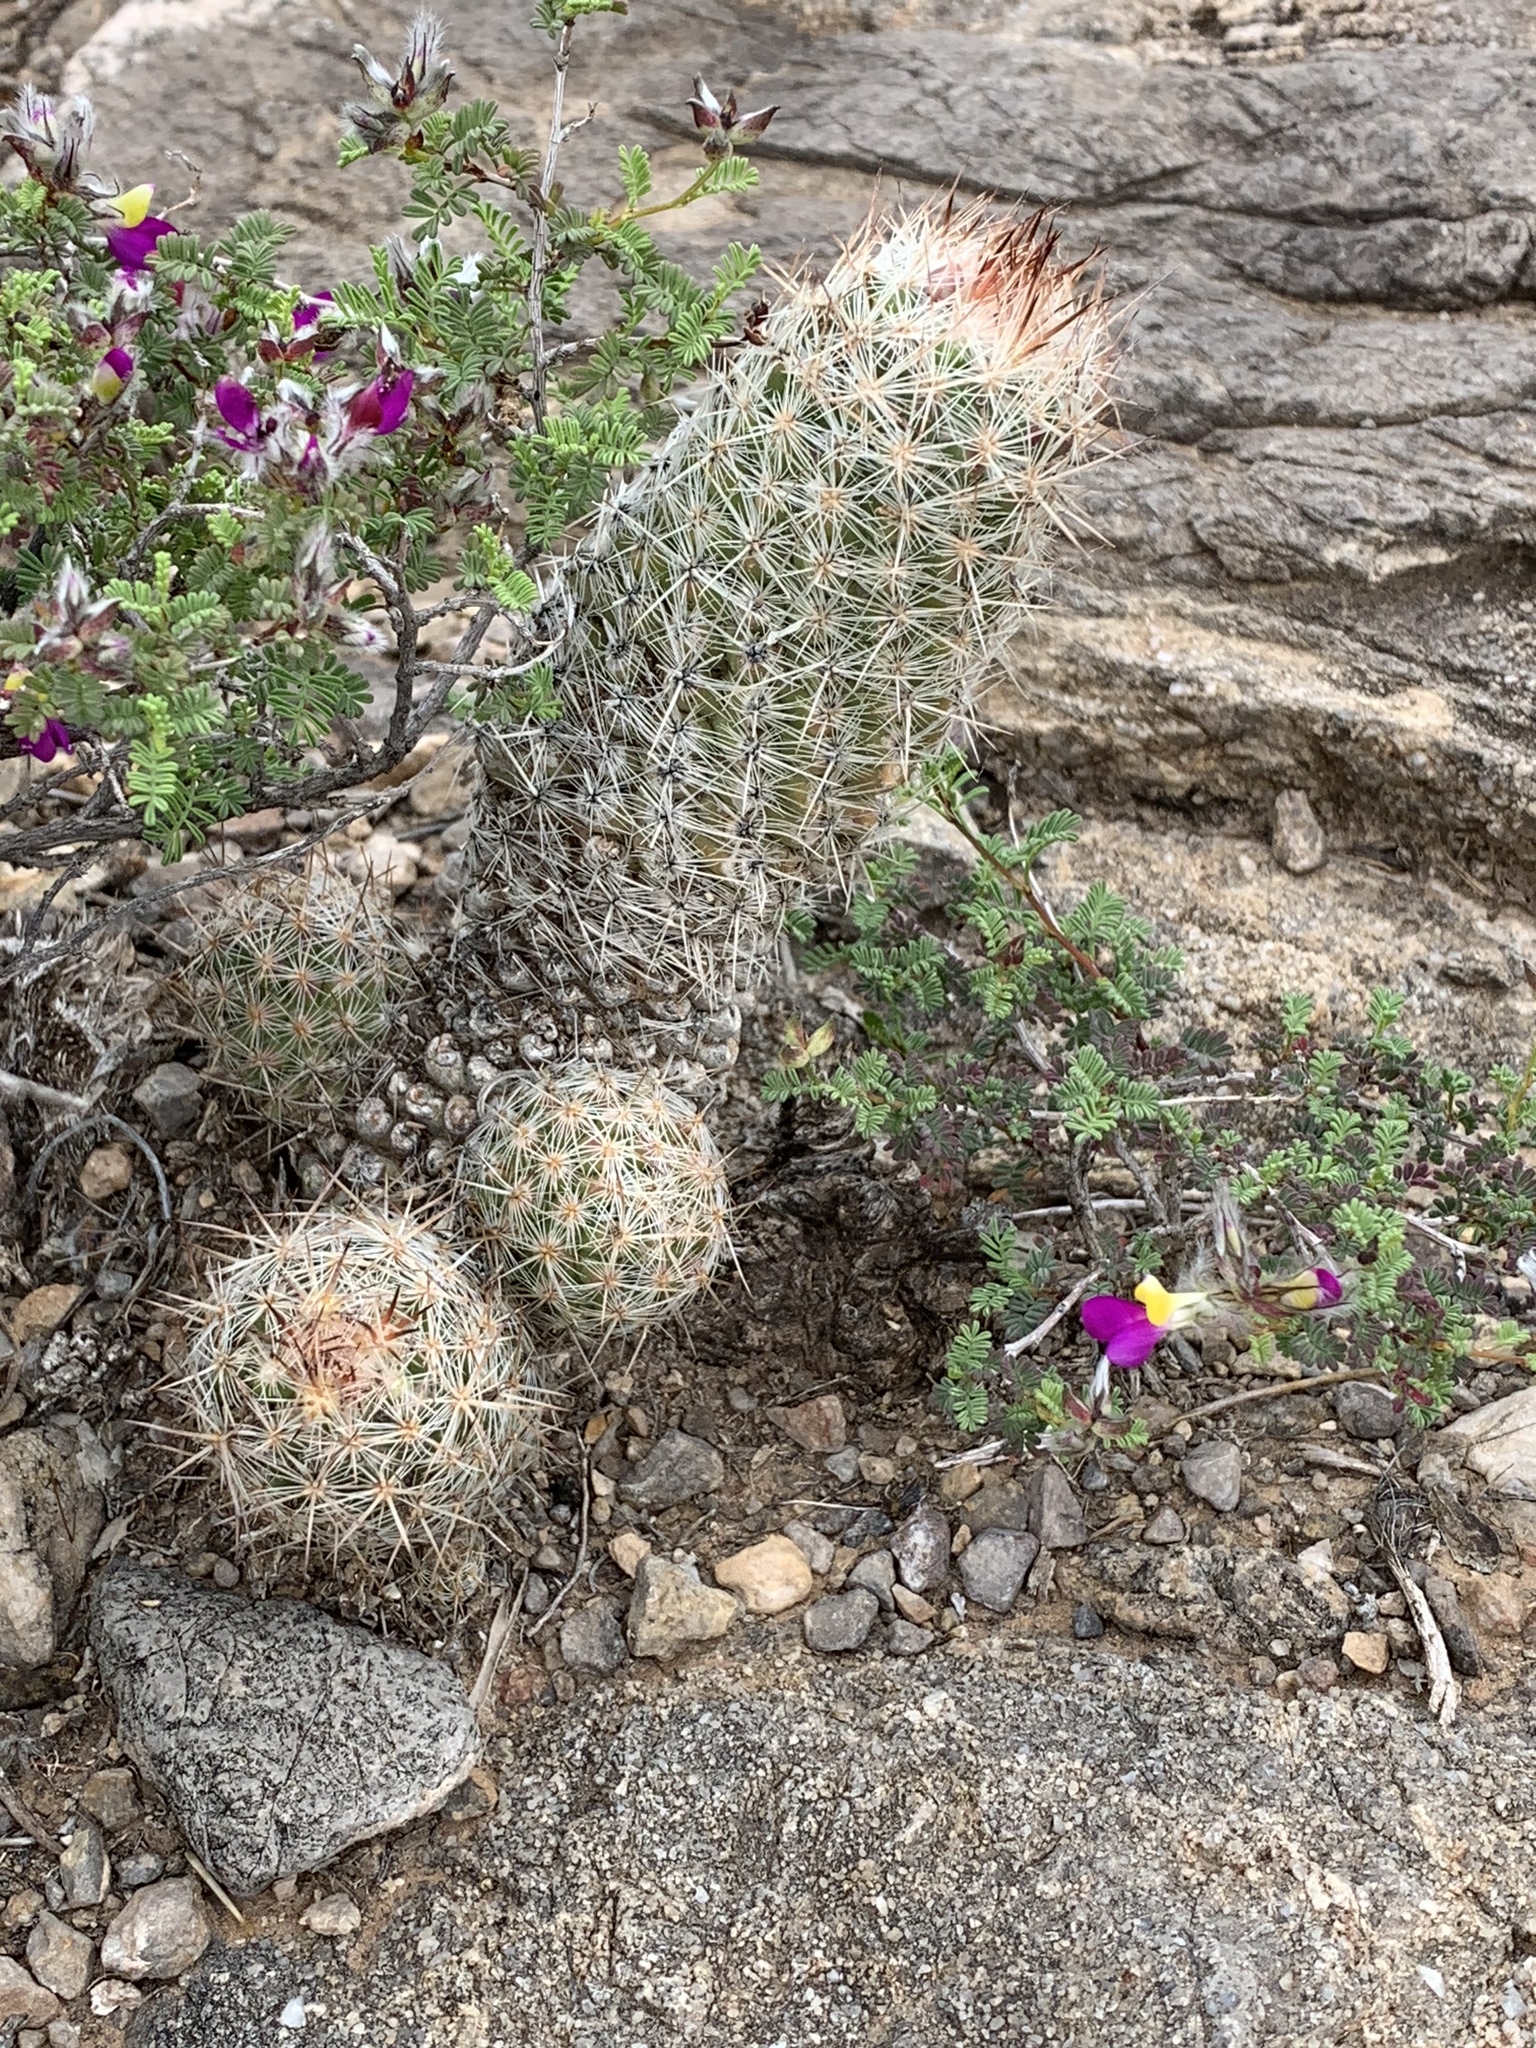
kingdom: Plantae
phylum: Tracheophyta
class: Magnoliopsida
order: Caryophyllales
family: Cactaceae
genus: Pelecyphora
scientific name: Pelecyphora tuberculosa
